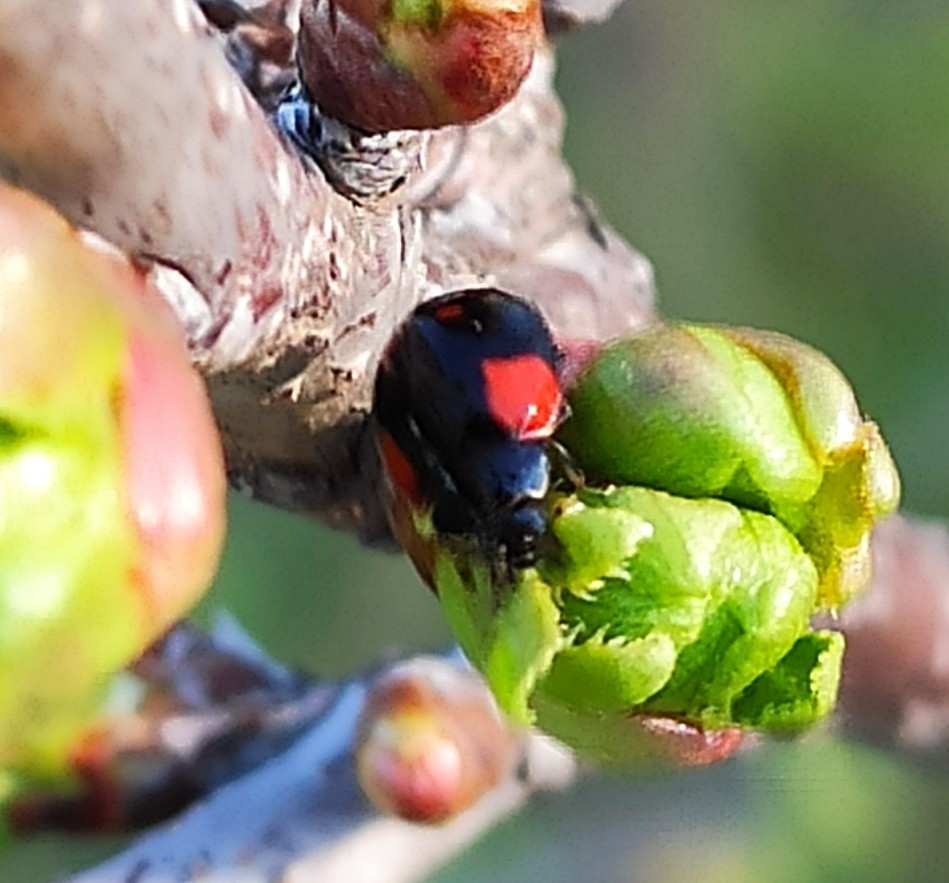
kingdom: Animalia
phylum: Arthropoda
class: Insecta
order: Coleoptera
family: Coccinellidae
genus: Adalia
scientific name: Adalia bipunctata
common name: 2-spot ladybird
